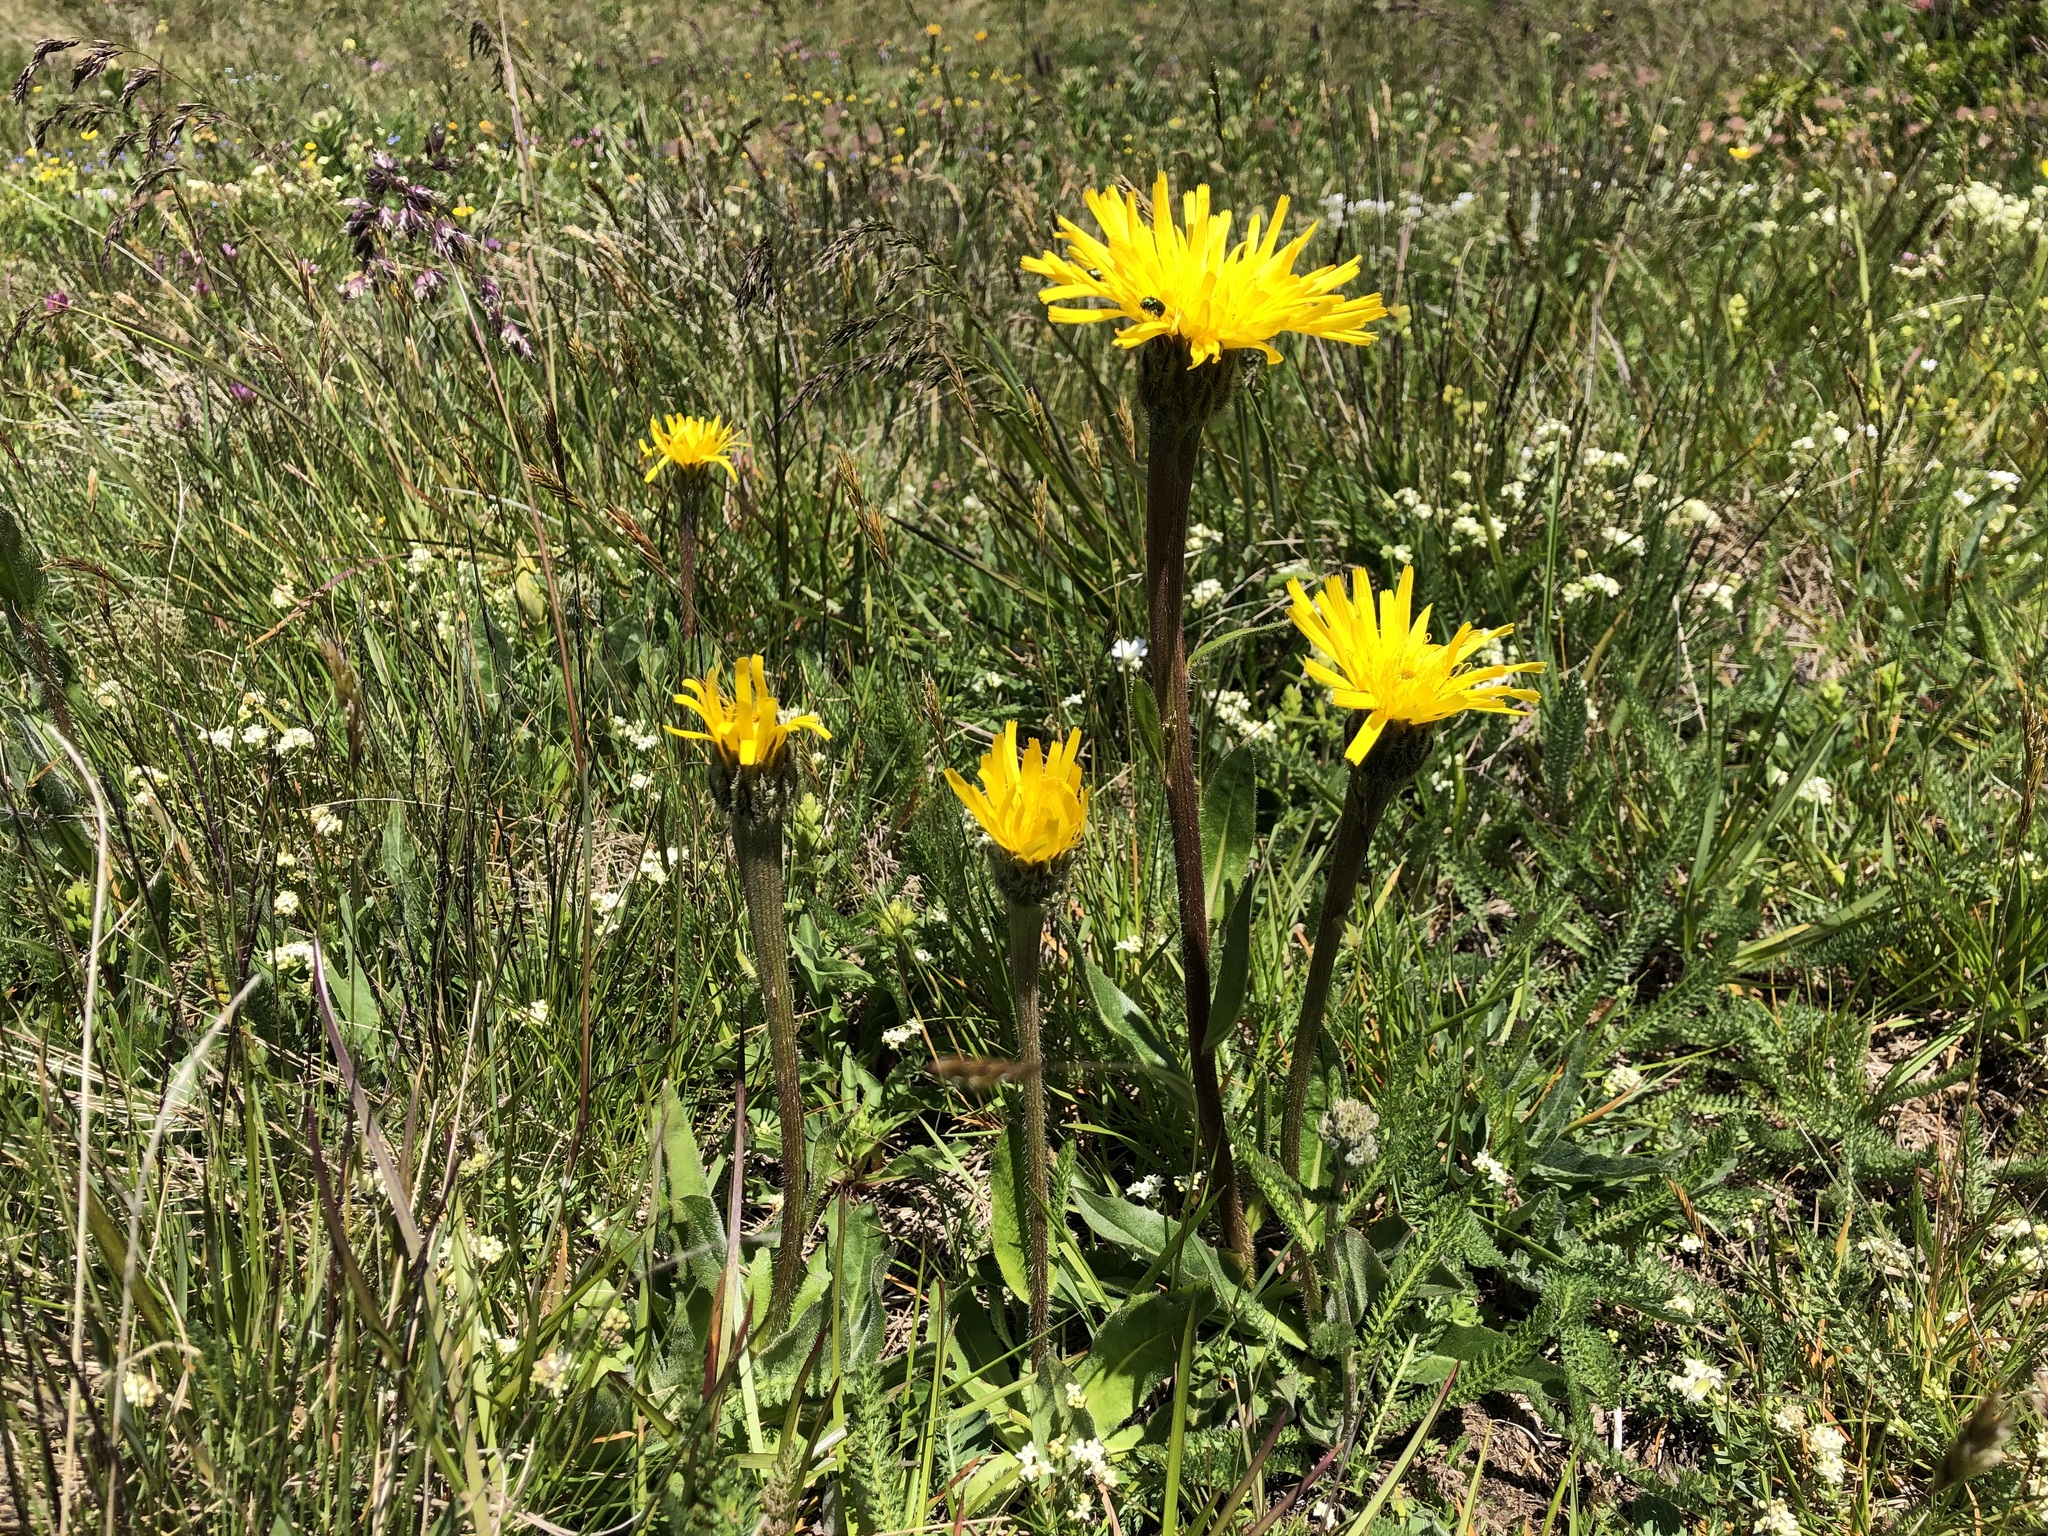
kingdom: Plantae
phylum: Tracheophyta
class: Magnoliopsida
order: Asterales
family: Asteraceae
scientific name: Asteraceae
